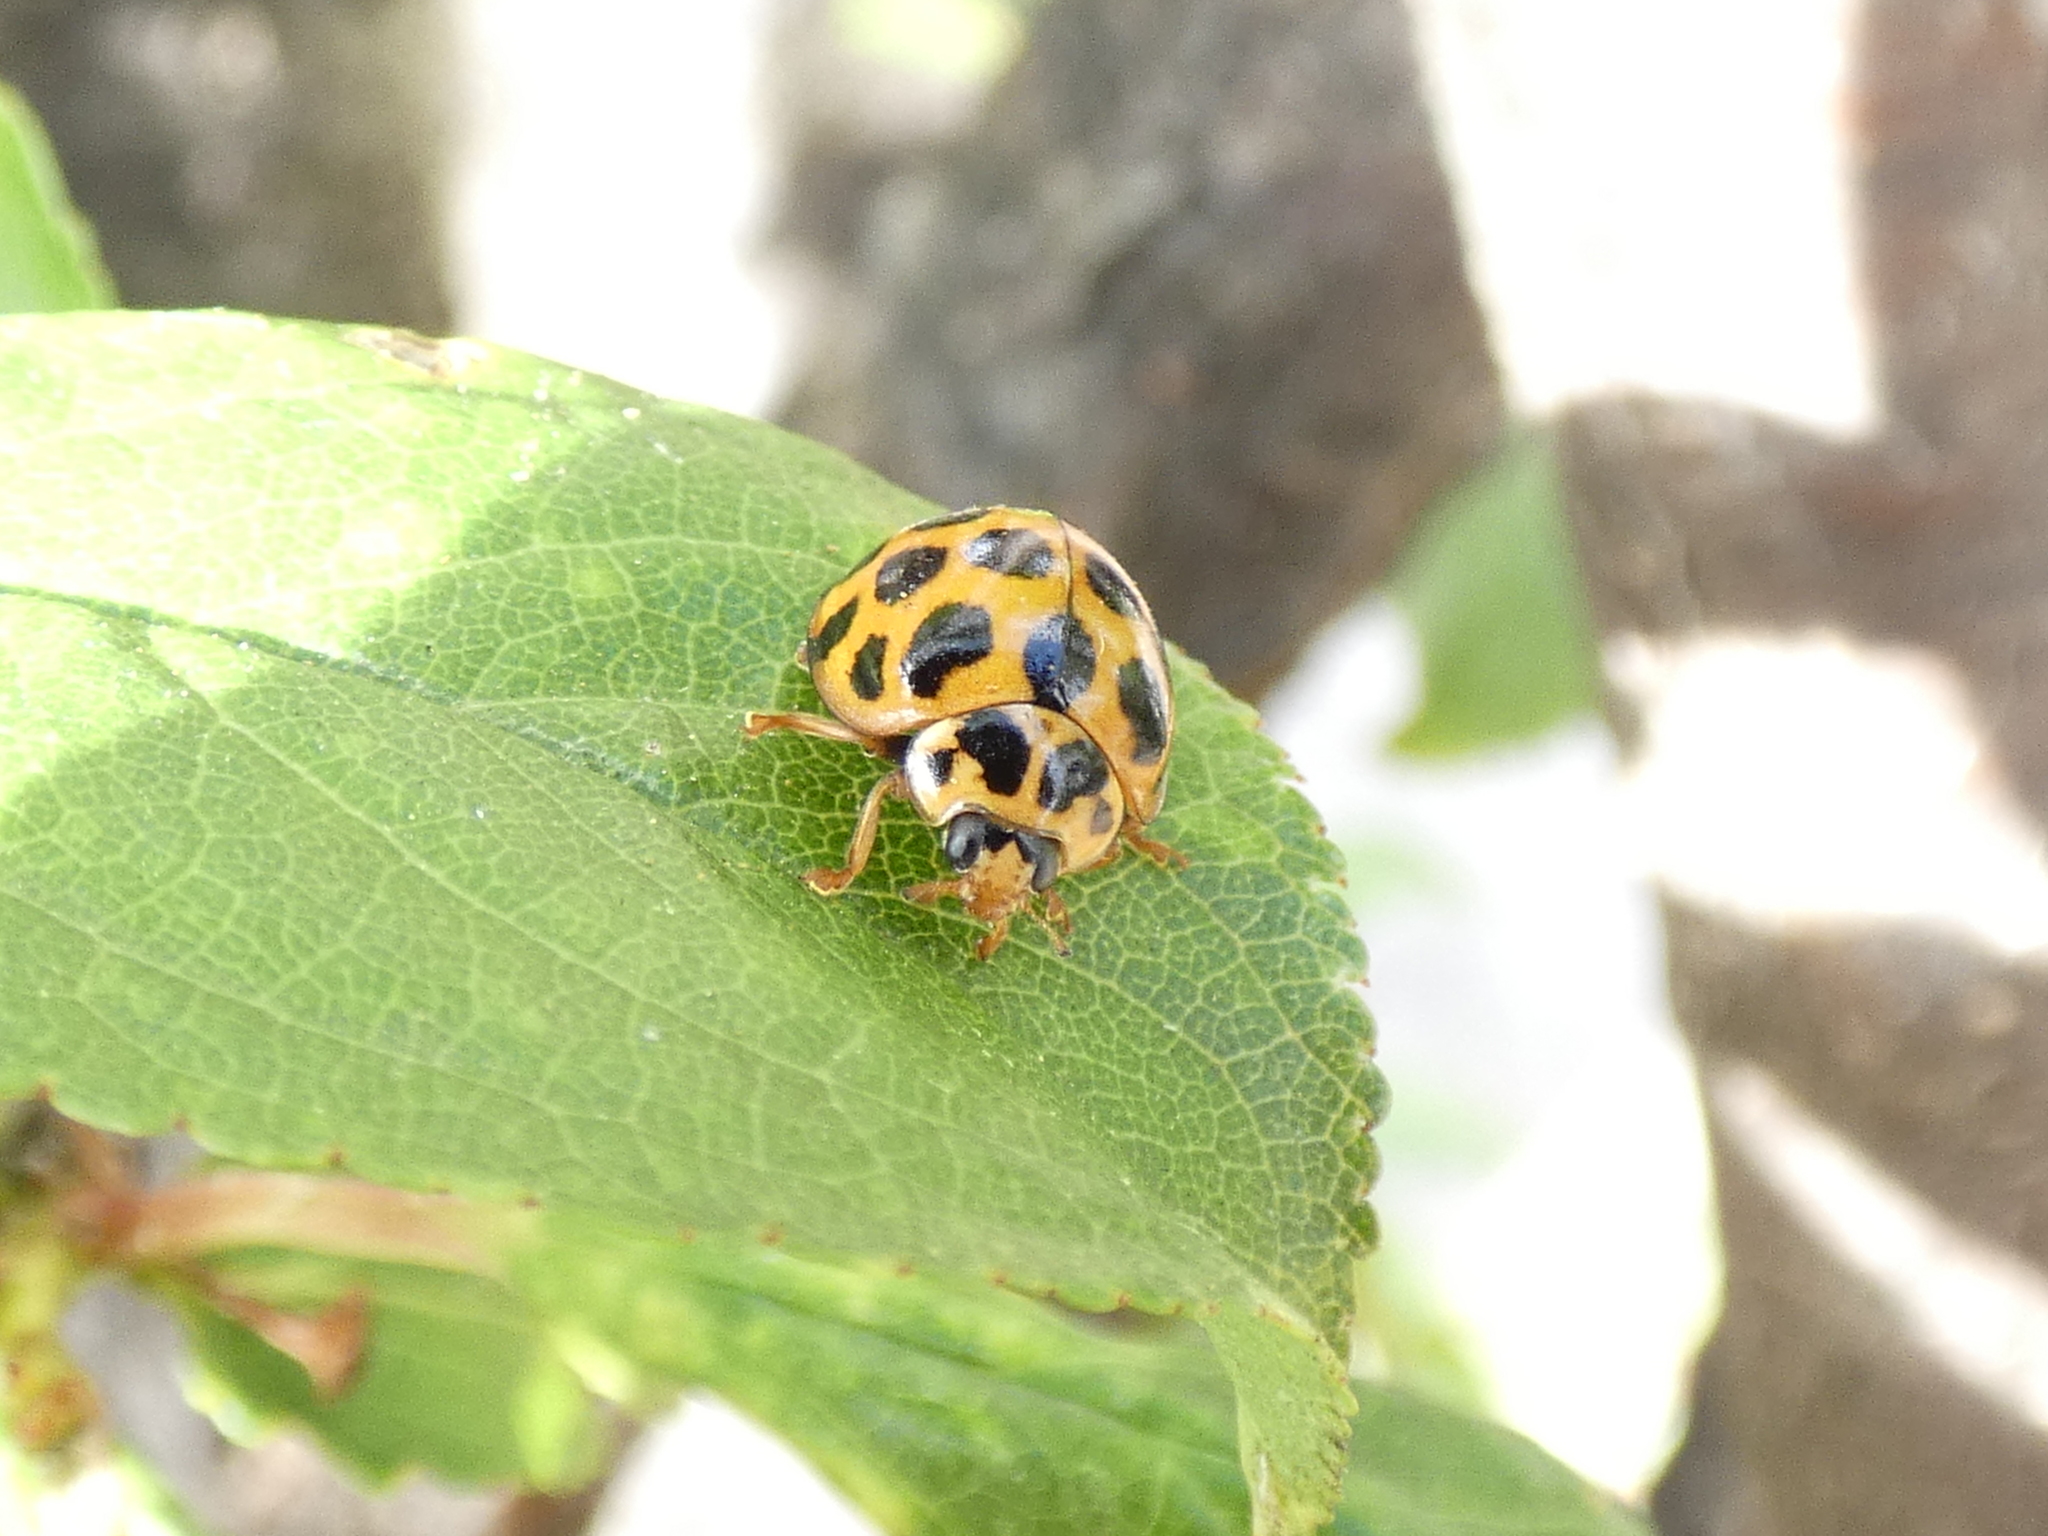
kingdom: Animalia
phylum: Arthropoda
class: Insecta
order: Coleoptera
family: Coccinellidae
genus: Harmonia
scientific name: Harmonia conformis
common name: Common spotted ladybird beetle
